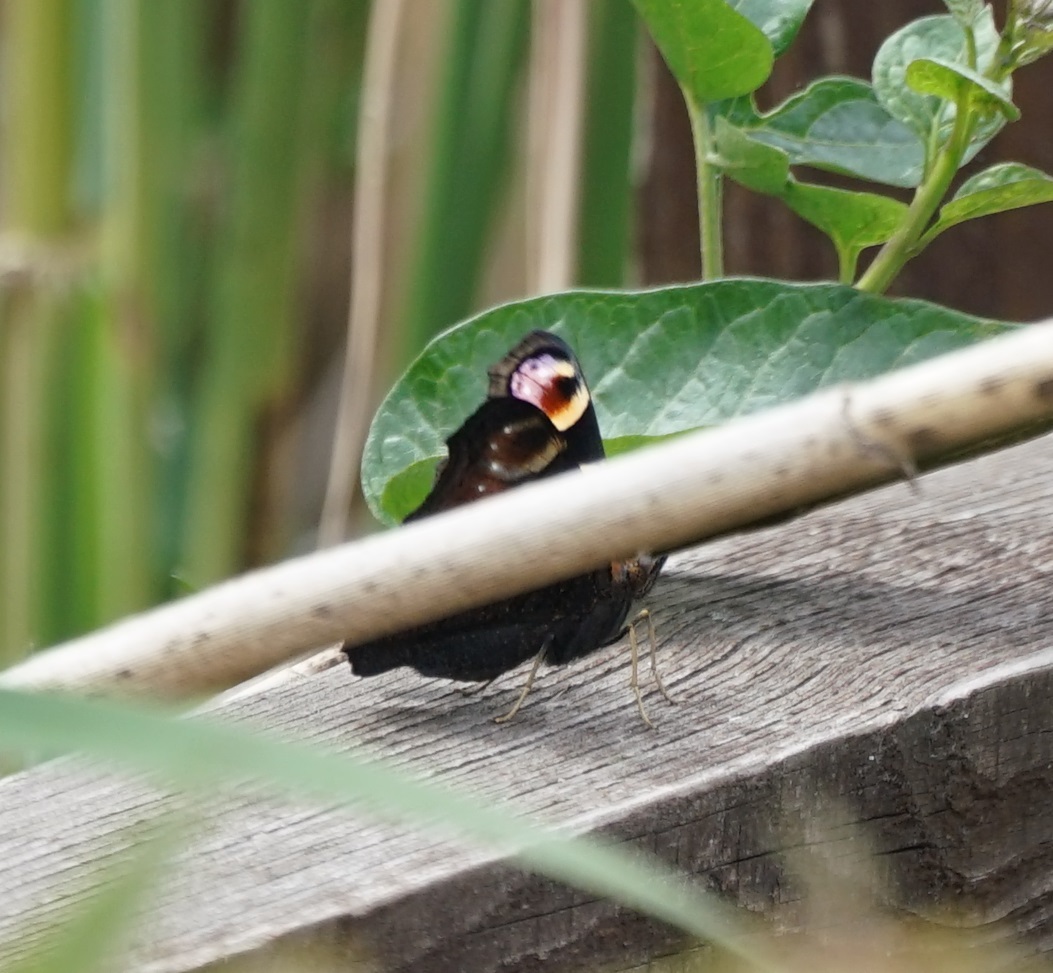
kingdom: Animalia
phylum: Arthropoda
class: Insecta
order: Lepidoptera
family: Nymphalidae
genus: Aglais
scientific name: Aglais io
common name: Peacock
